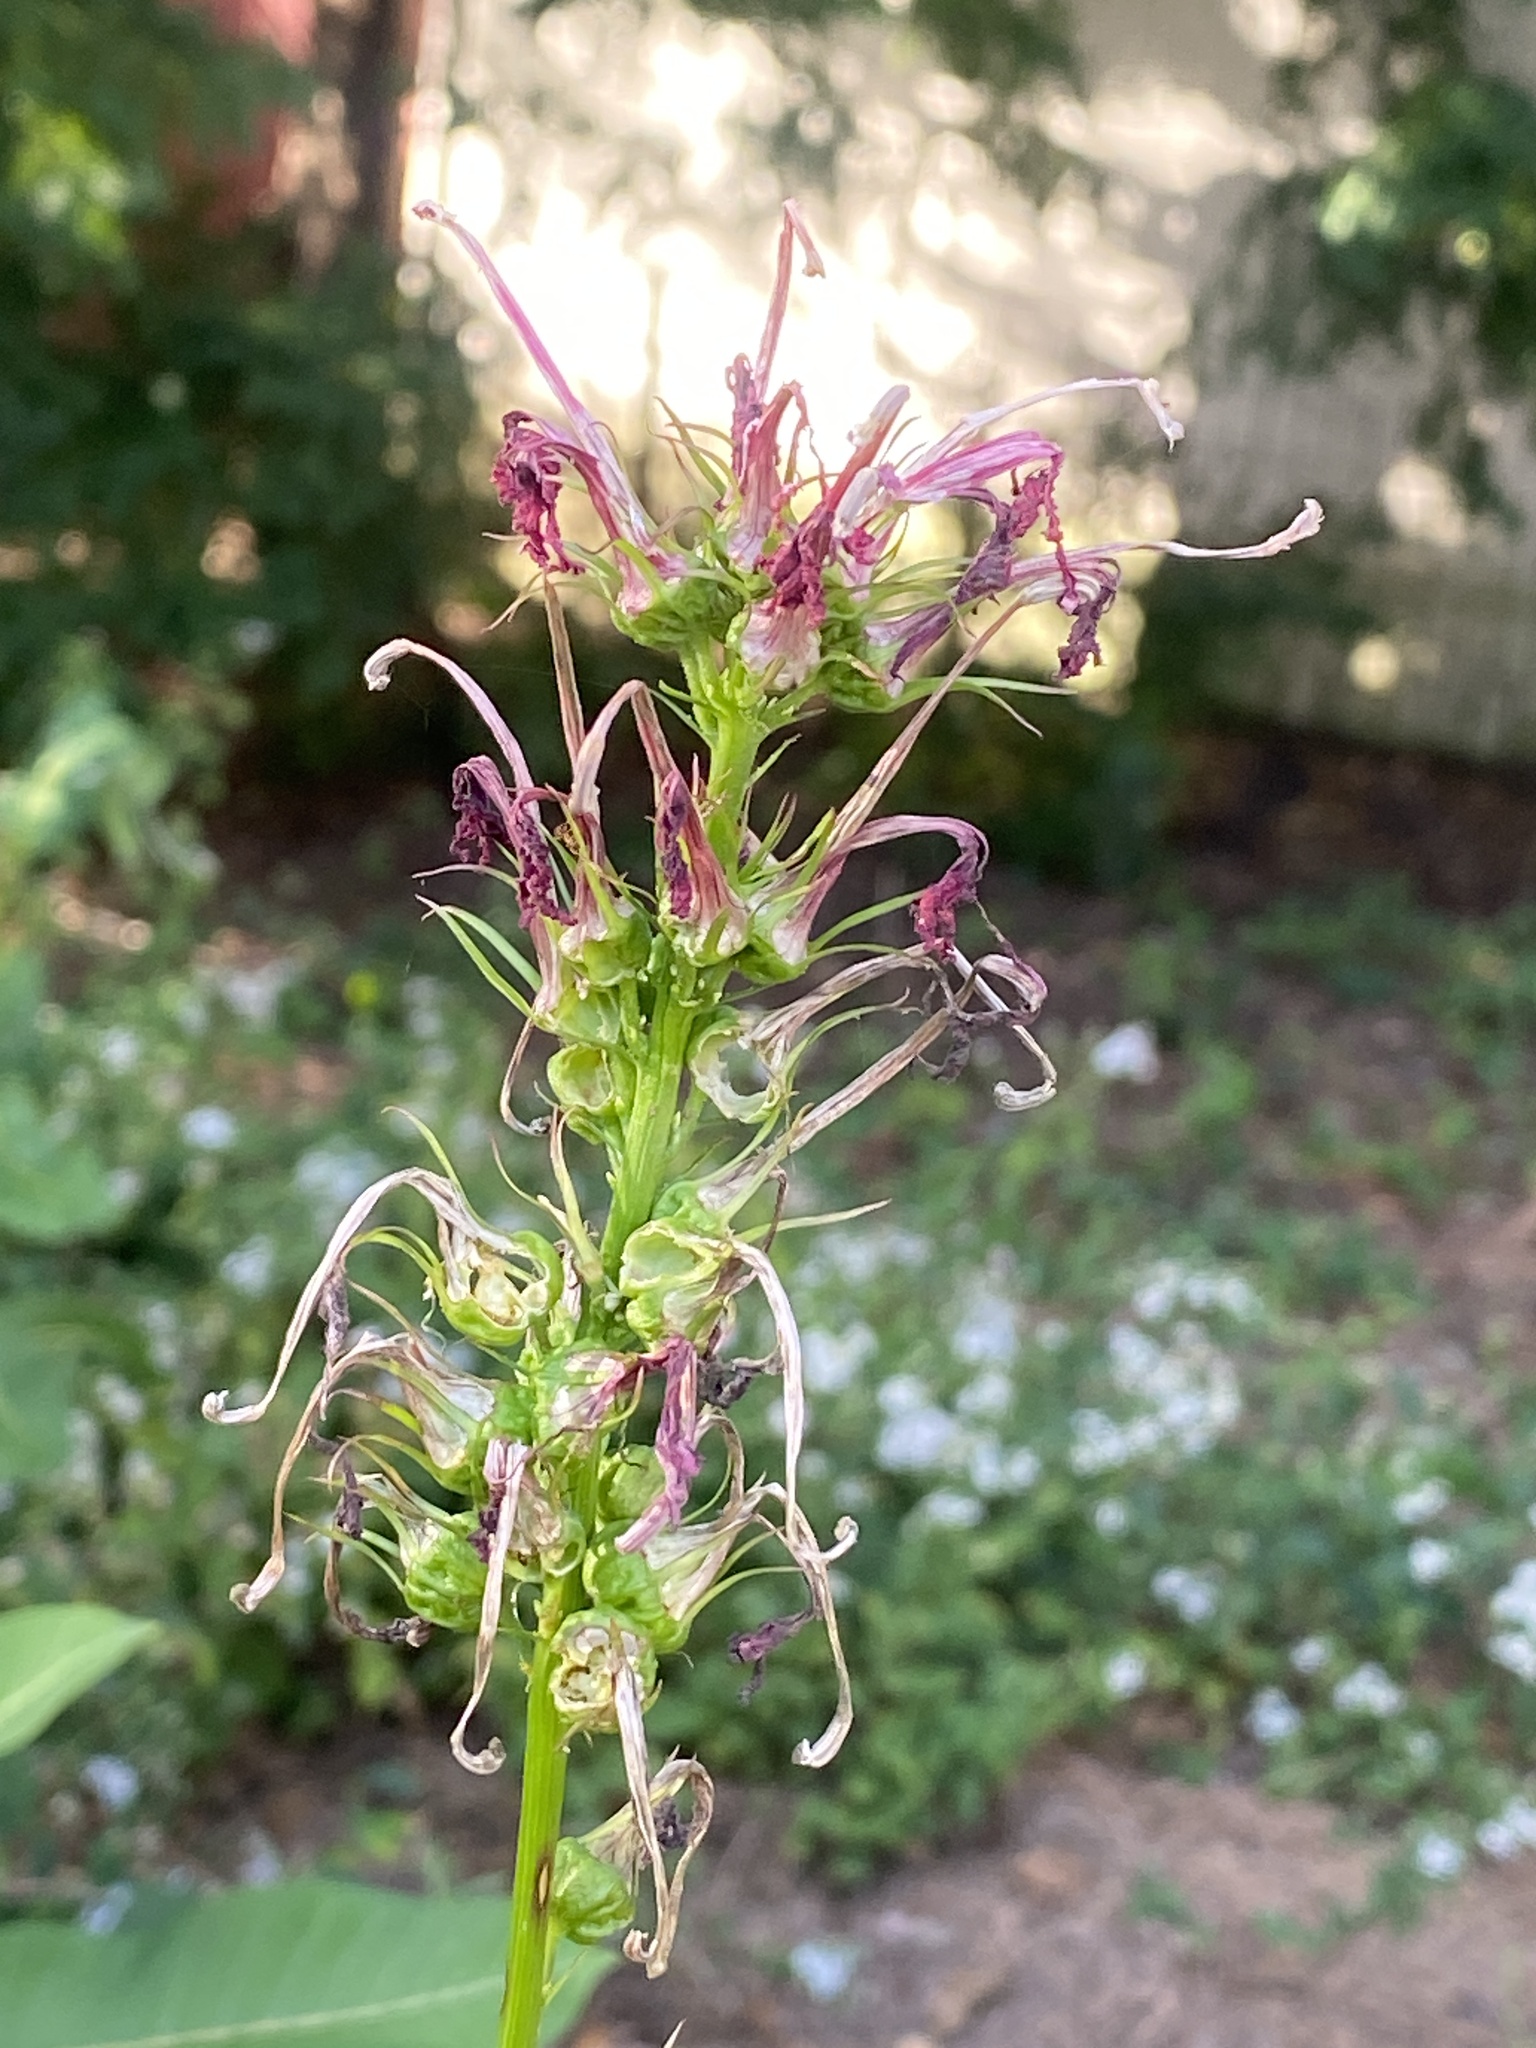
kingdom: Plantae
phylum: Tracheophyta
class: Magnoliopsida
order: Asterales
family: Campanulaceae
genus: Lobelia
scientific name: Lobelia cardinalis
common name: Cardinal flower
